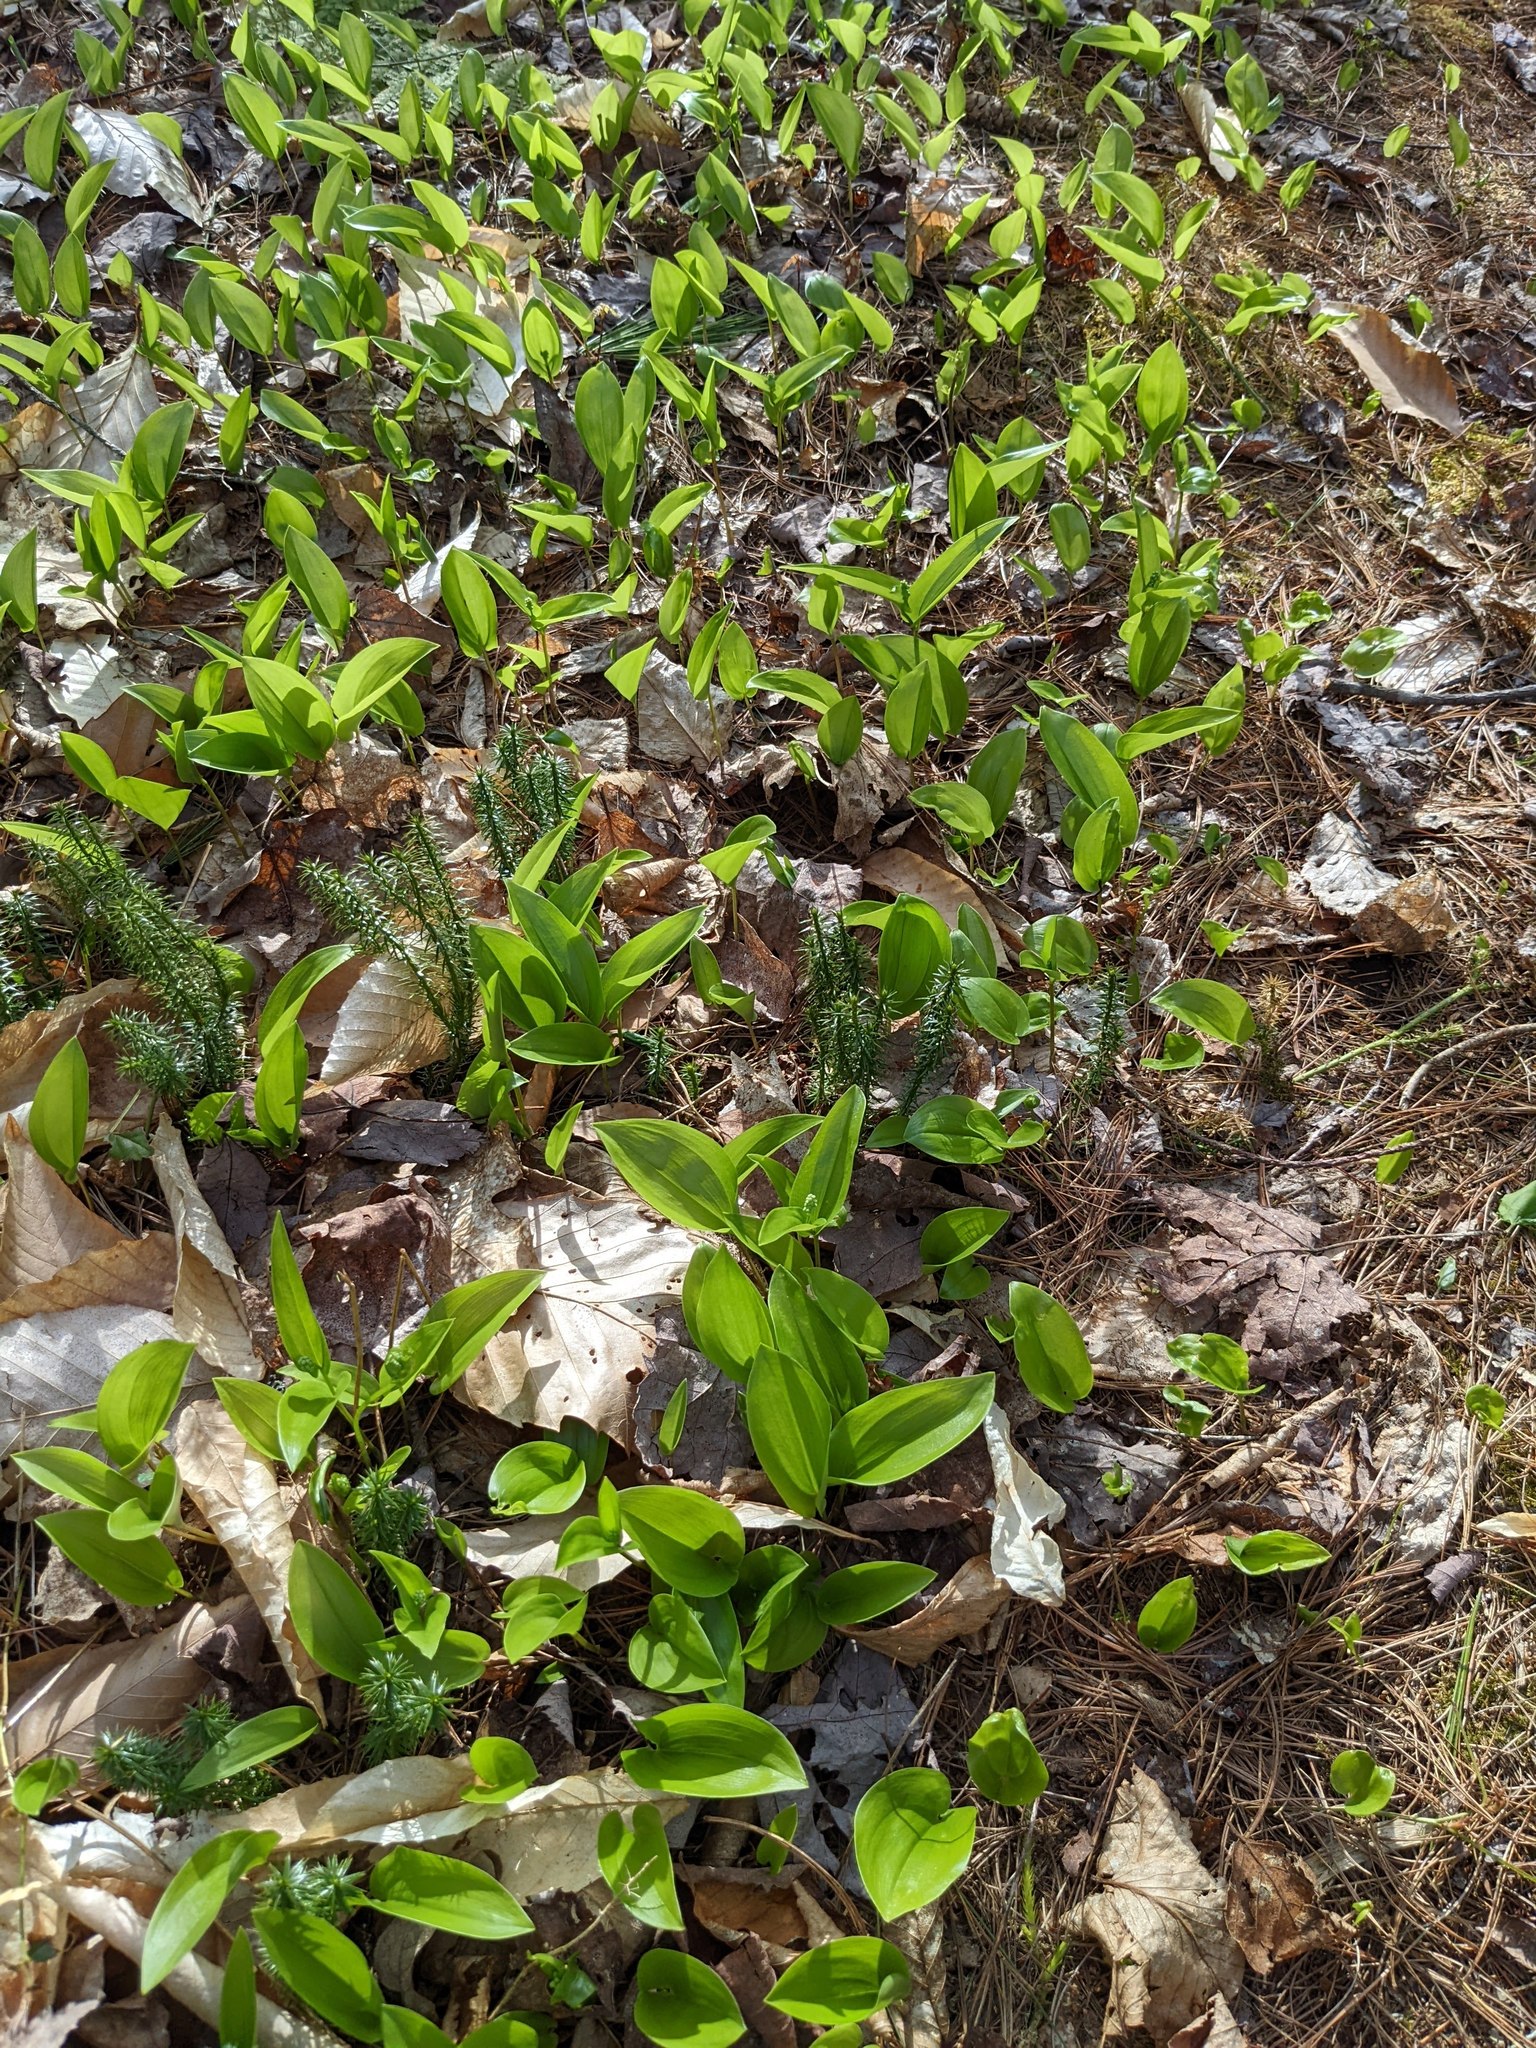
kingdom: Plantae
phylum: Tracheophyta
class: Liliopsida
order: Asparagales
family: Asparagaceae
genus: Maianthemum
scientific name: Maianthemum canadense
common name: False lily-of-the-valley
